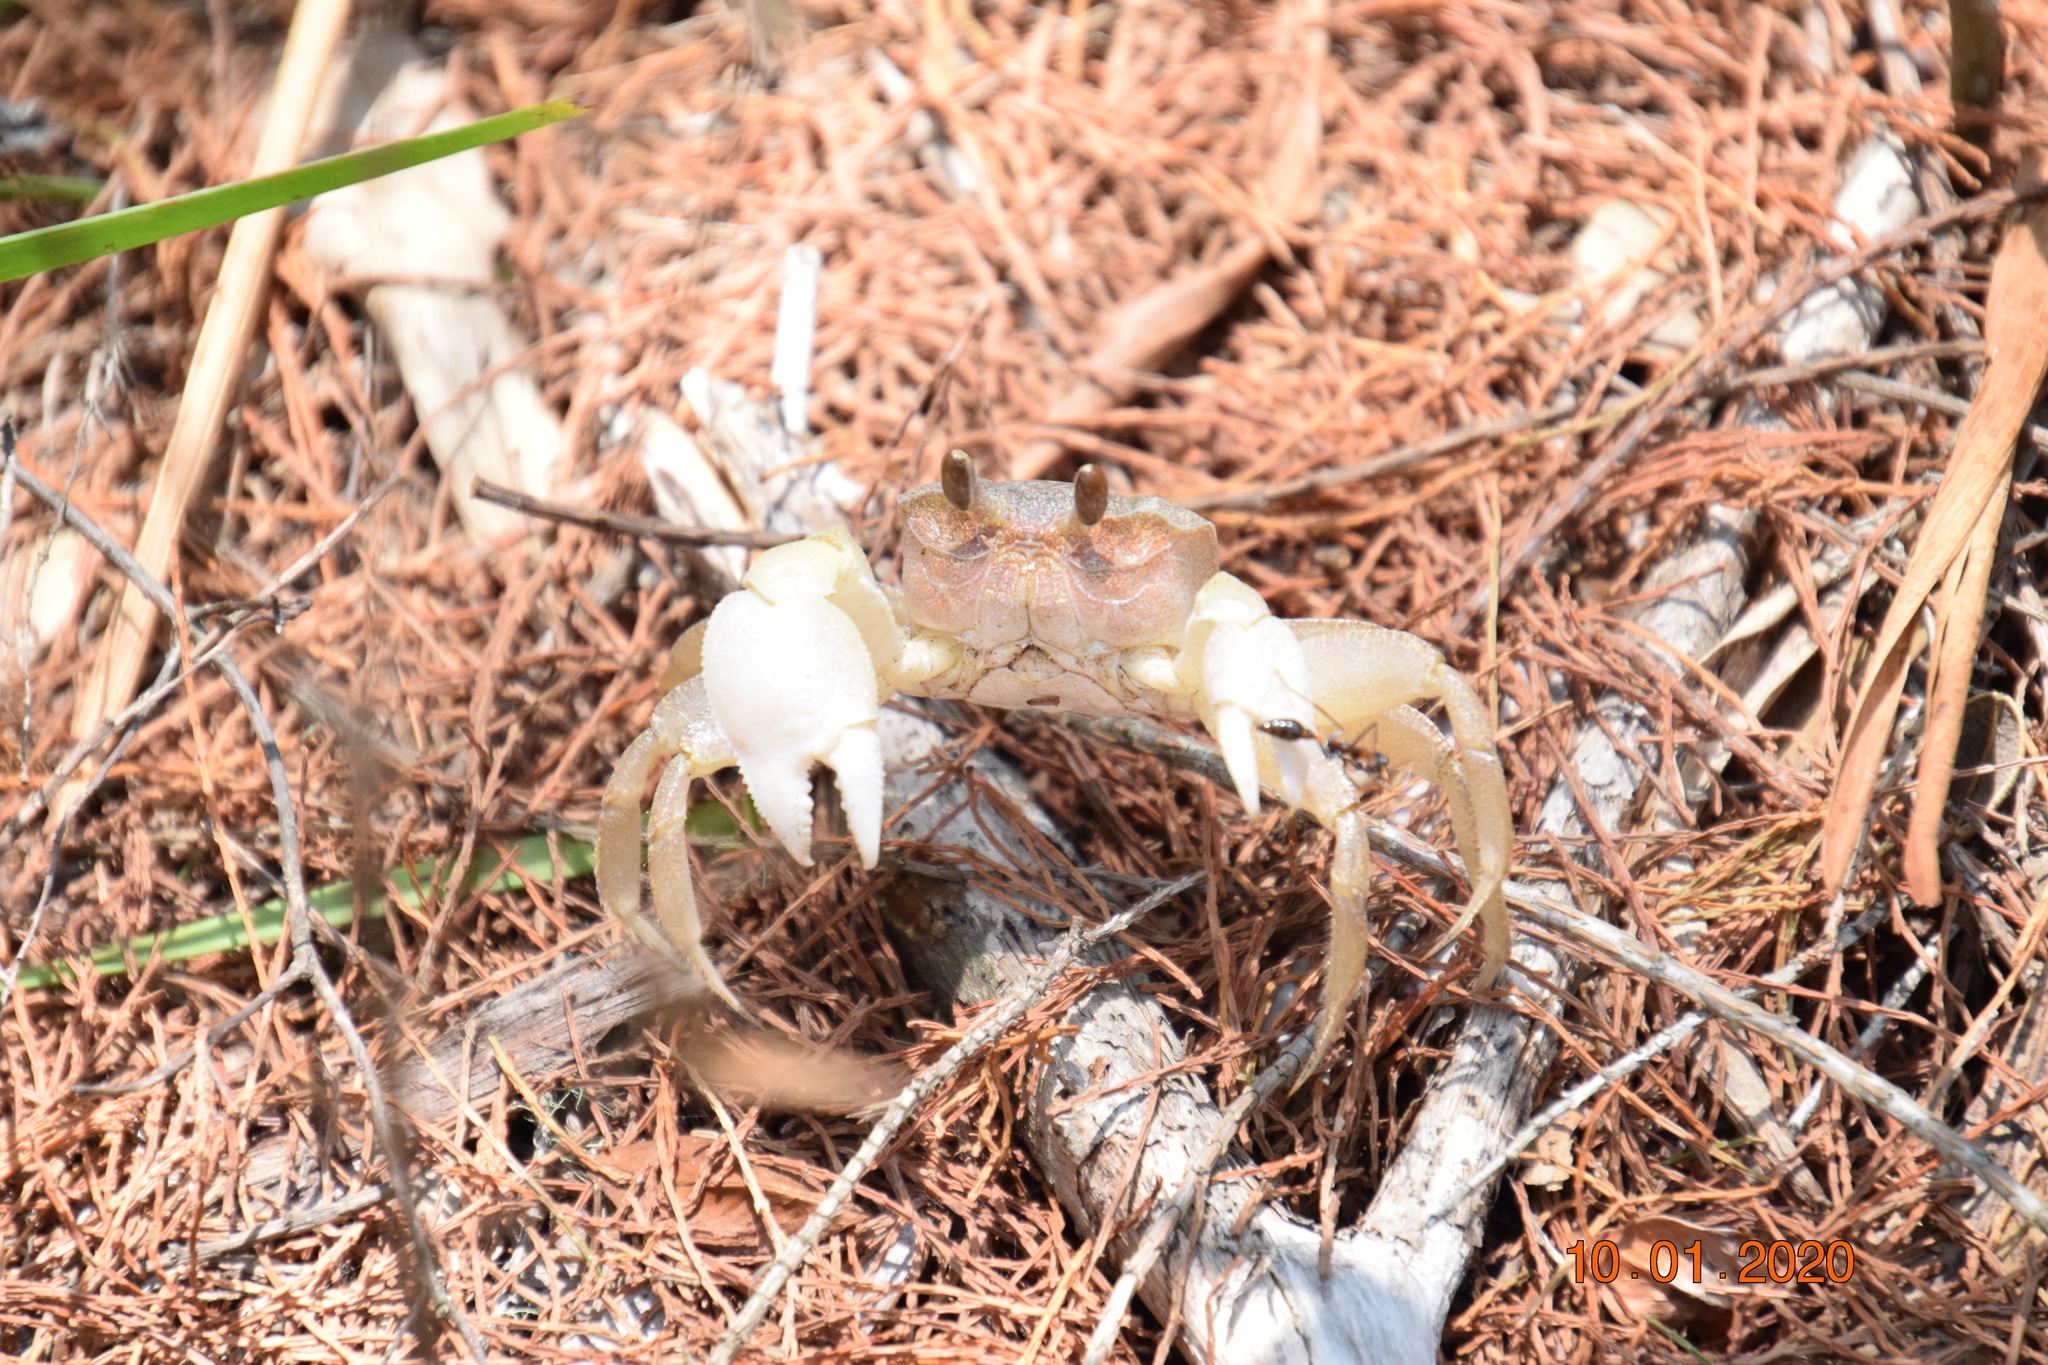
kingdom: Animalia
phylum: Arthropoda
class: Malacostraca
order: Decapoda
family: Ocypodidae
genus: Ocypode
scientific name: Ocypode cordimana
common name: Smooth-eyed ghost crab
